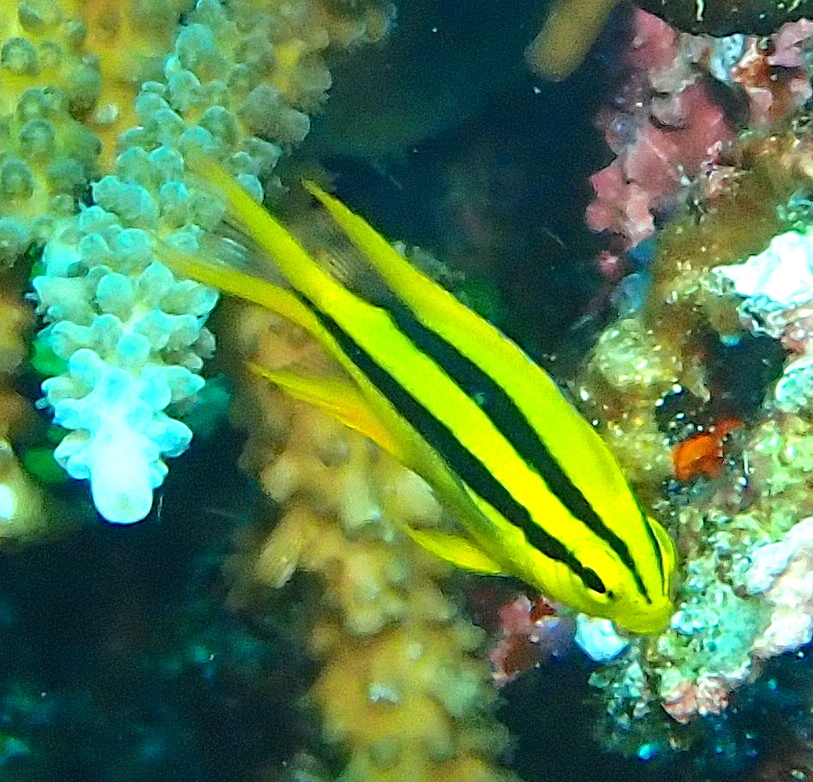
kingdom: Animalia
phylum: Chordata
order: Perciformes
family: Pomacentridae
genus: Neoglyphidodon
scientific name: Neoglyphidodon nigroris
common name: Behn's damsel
